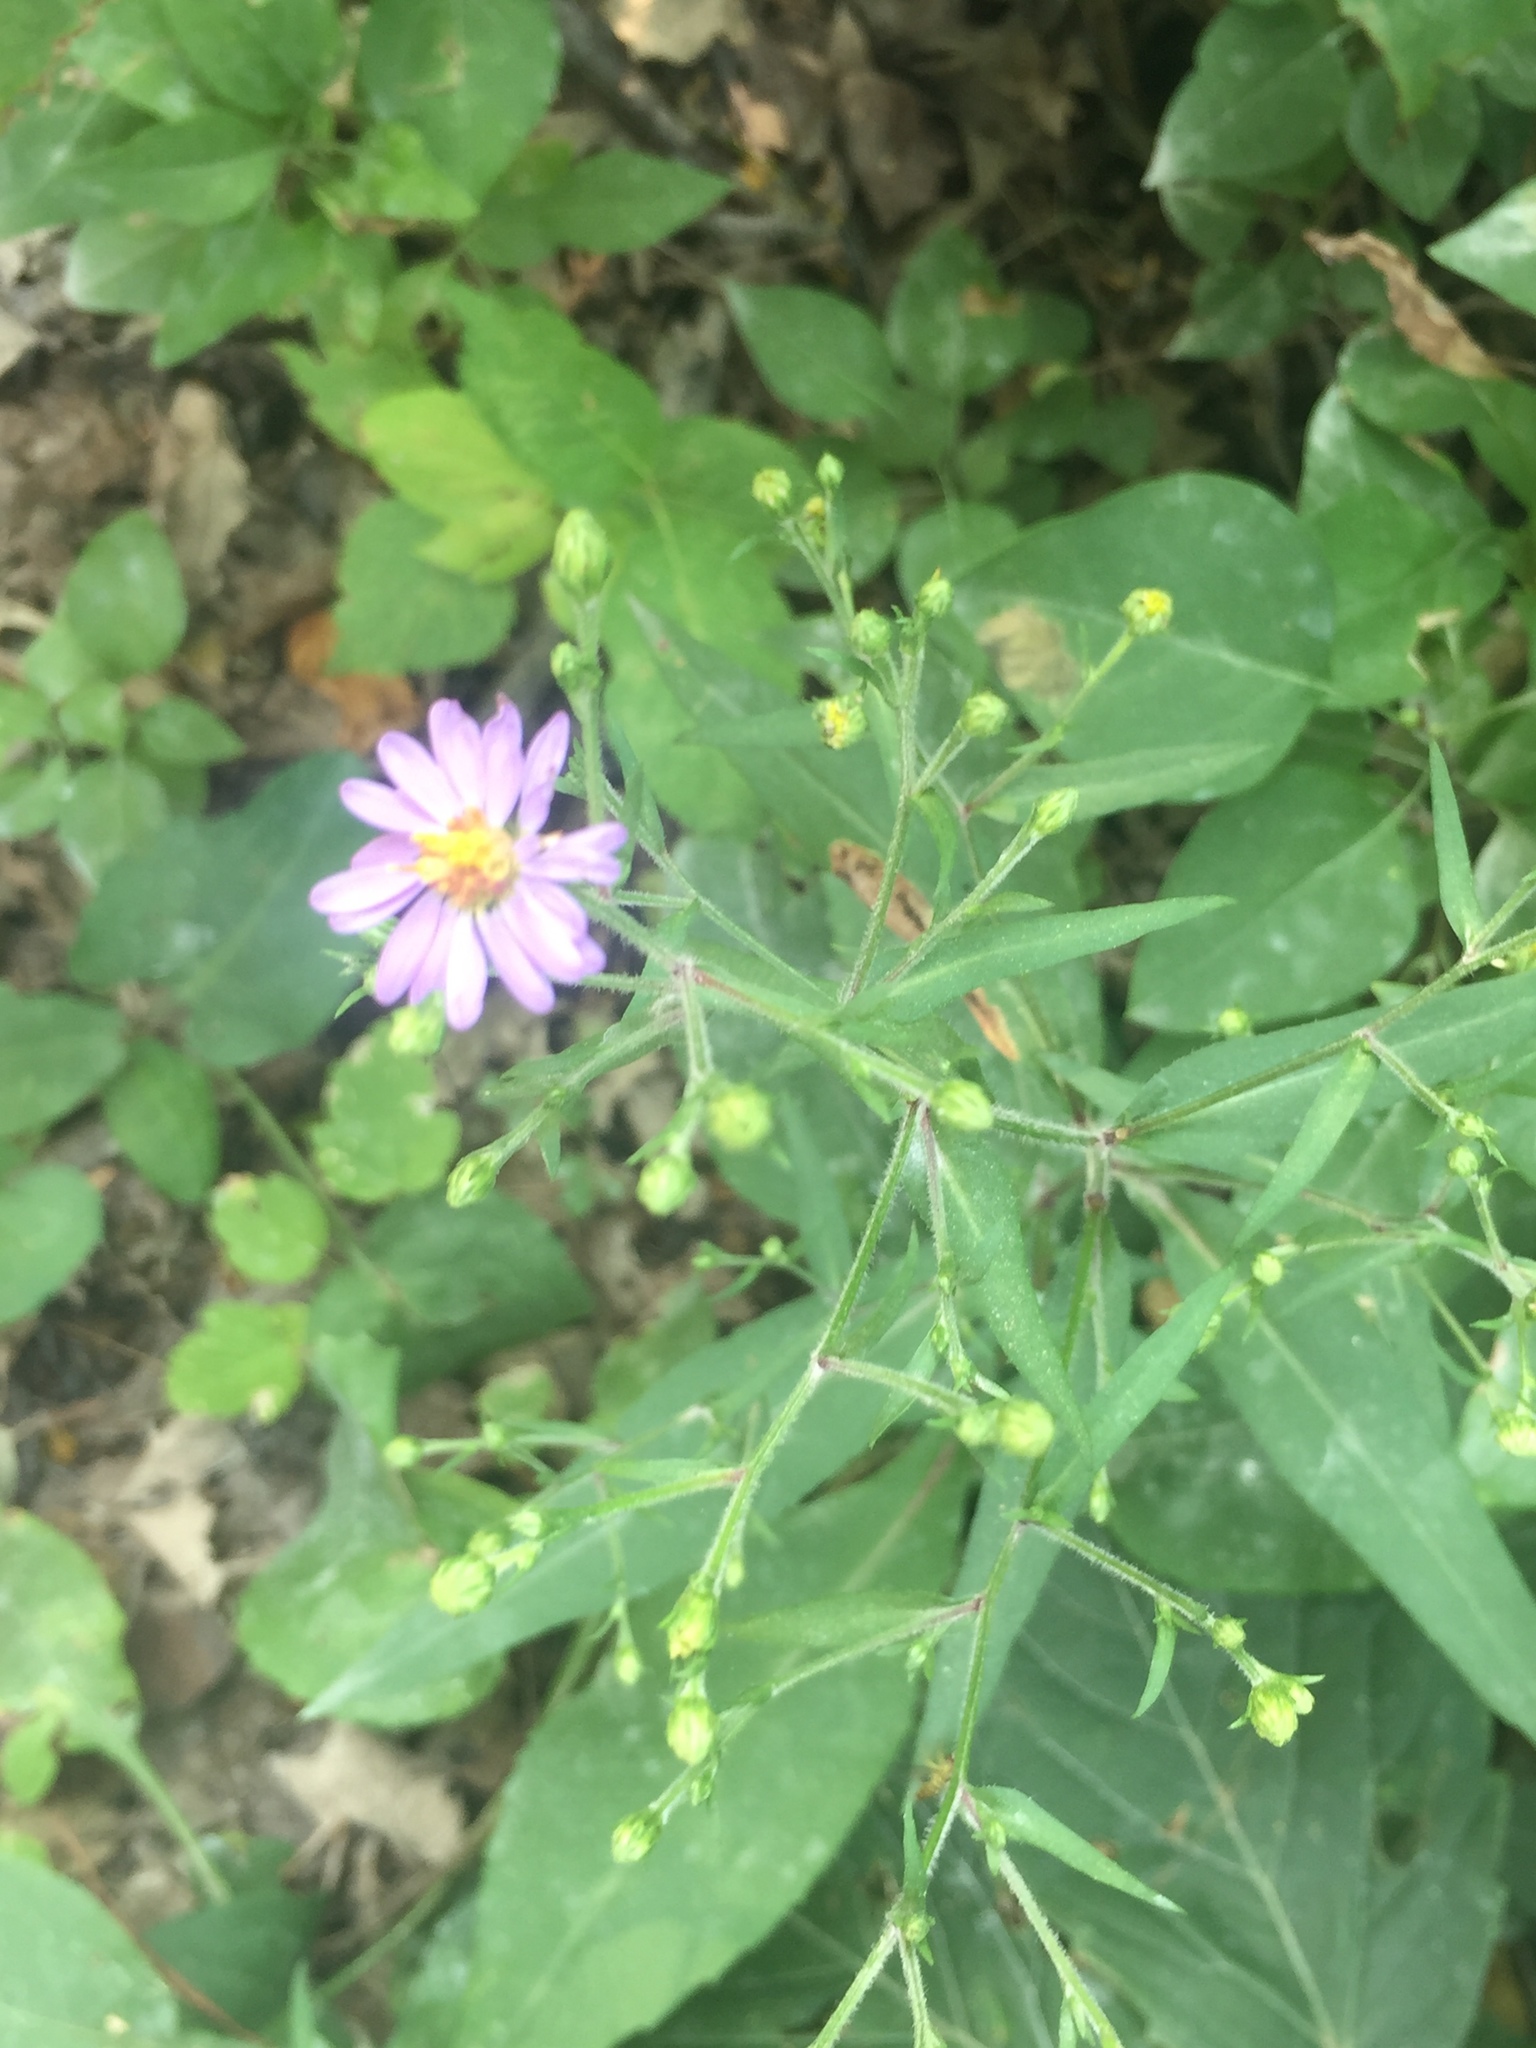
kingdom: Plantae
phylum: Tracheophyta
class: Magnoliopsida
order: Asterales
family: Asteraceae
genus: Symphyotrichum
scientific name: Symphyotrichum laeve
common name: Glaucous aster
